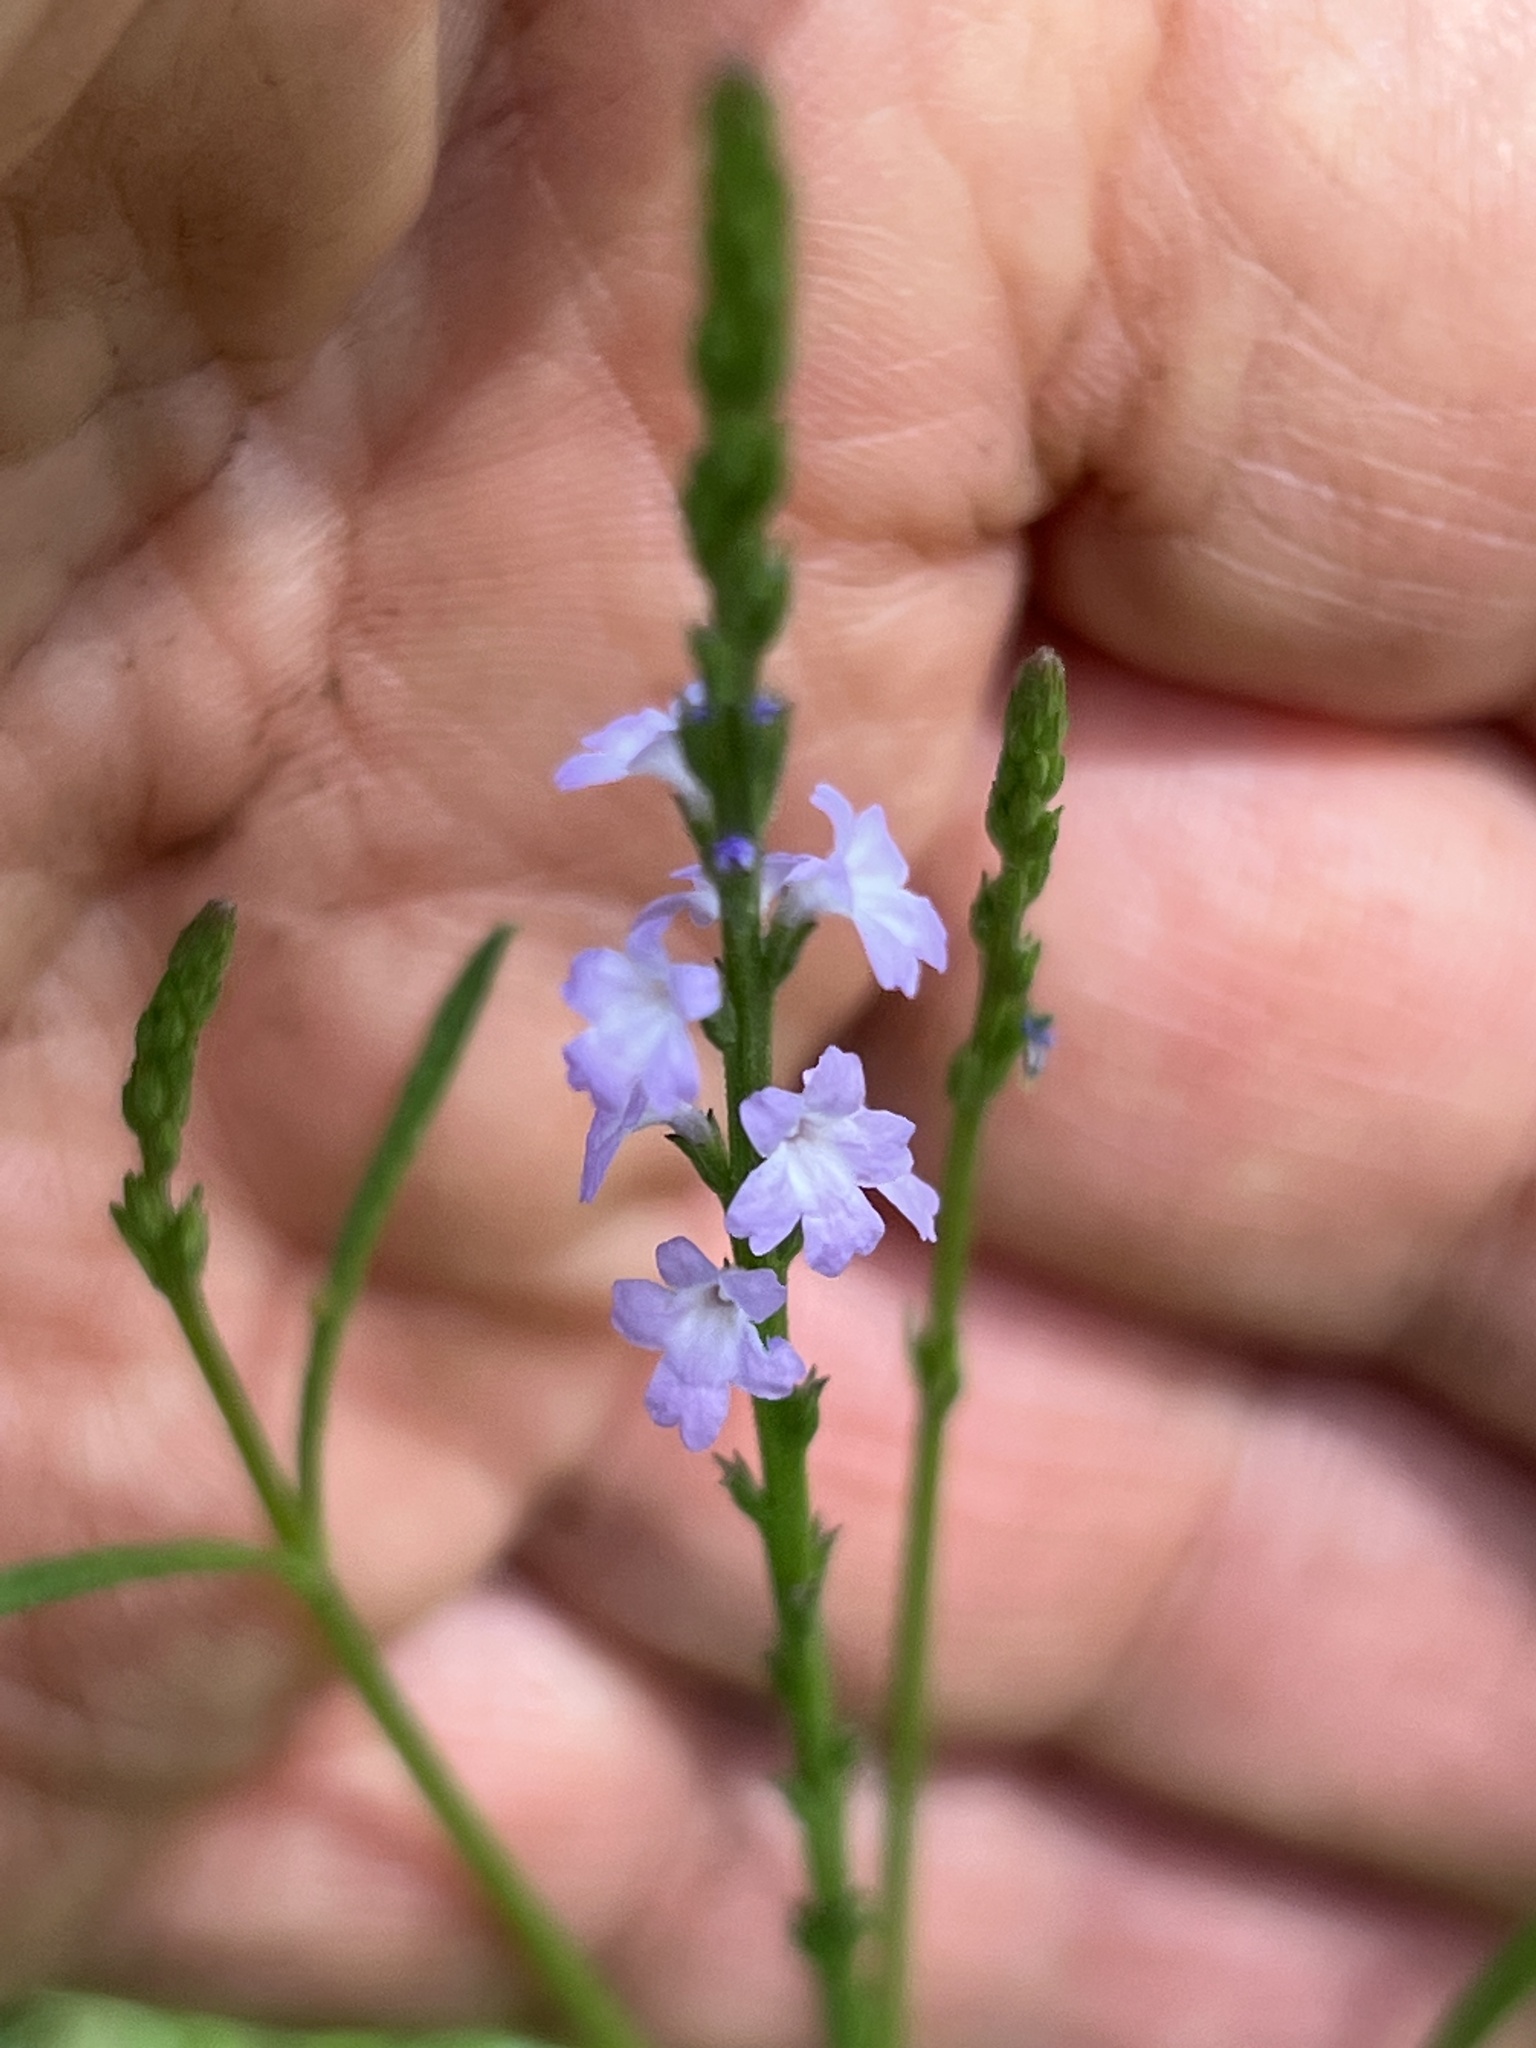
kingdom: Plantae
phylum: Tracheophyta
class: Magnoliopsida
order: Lamiales
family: Verbenaceae
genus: Verbena
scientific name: Verbena halei
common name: Texas vervain
